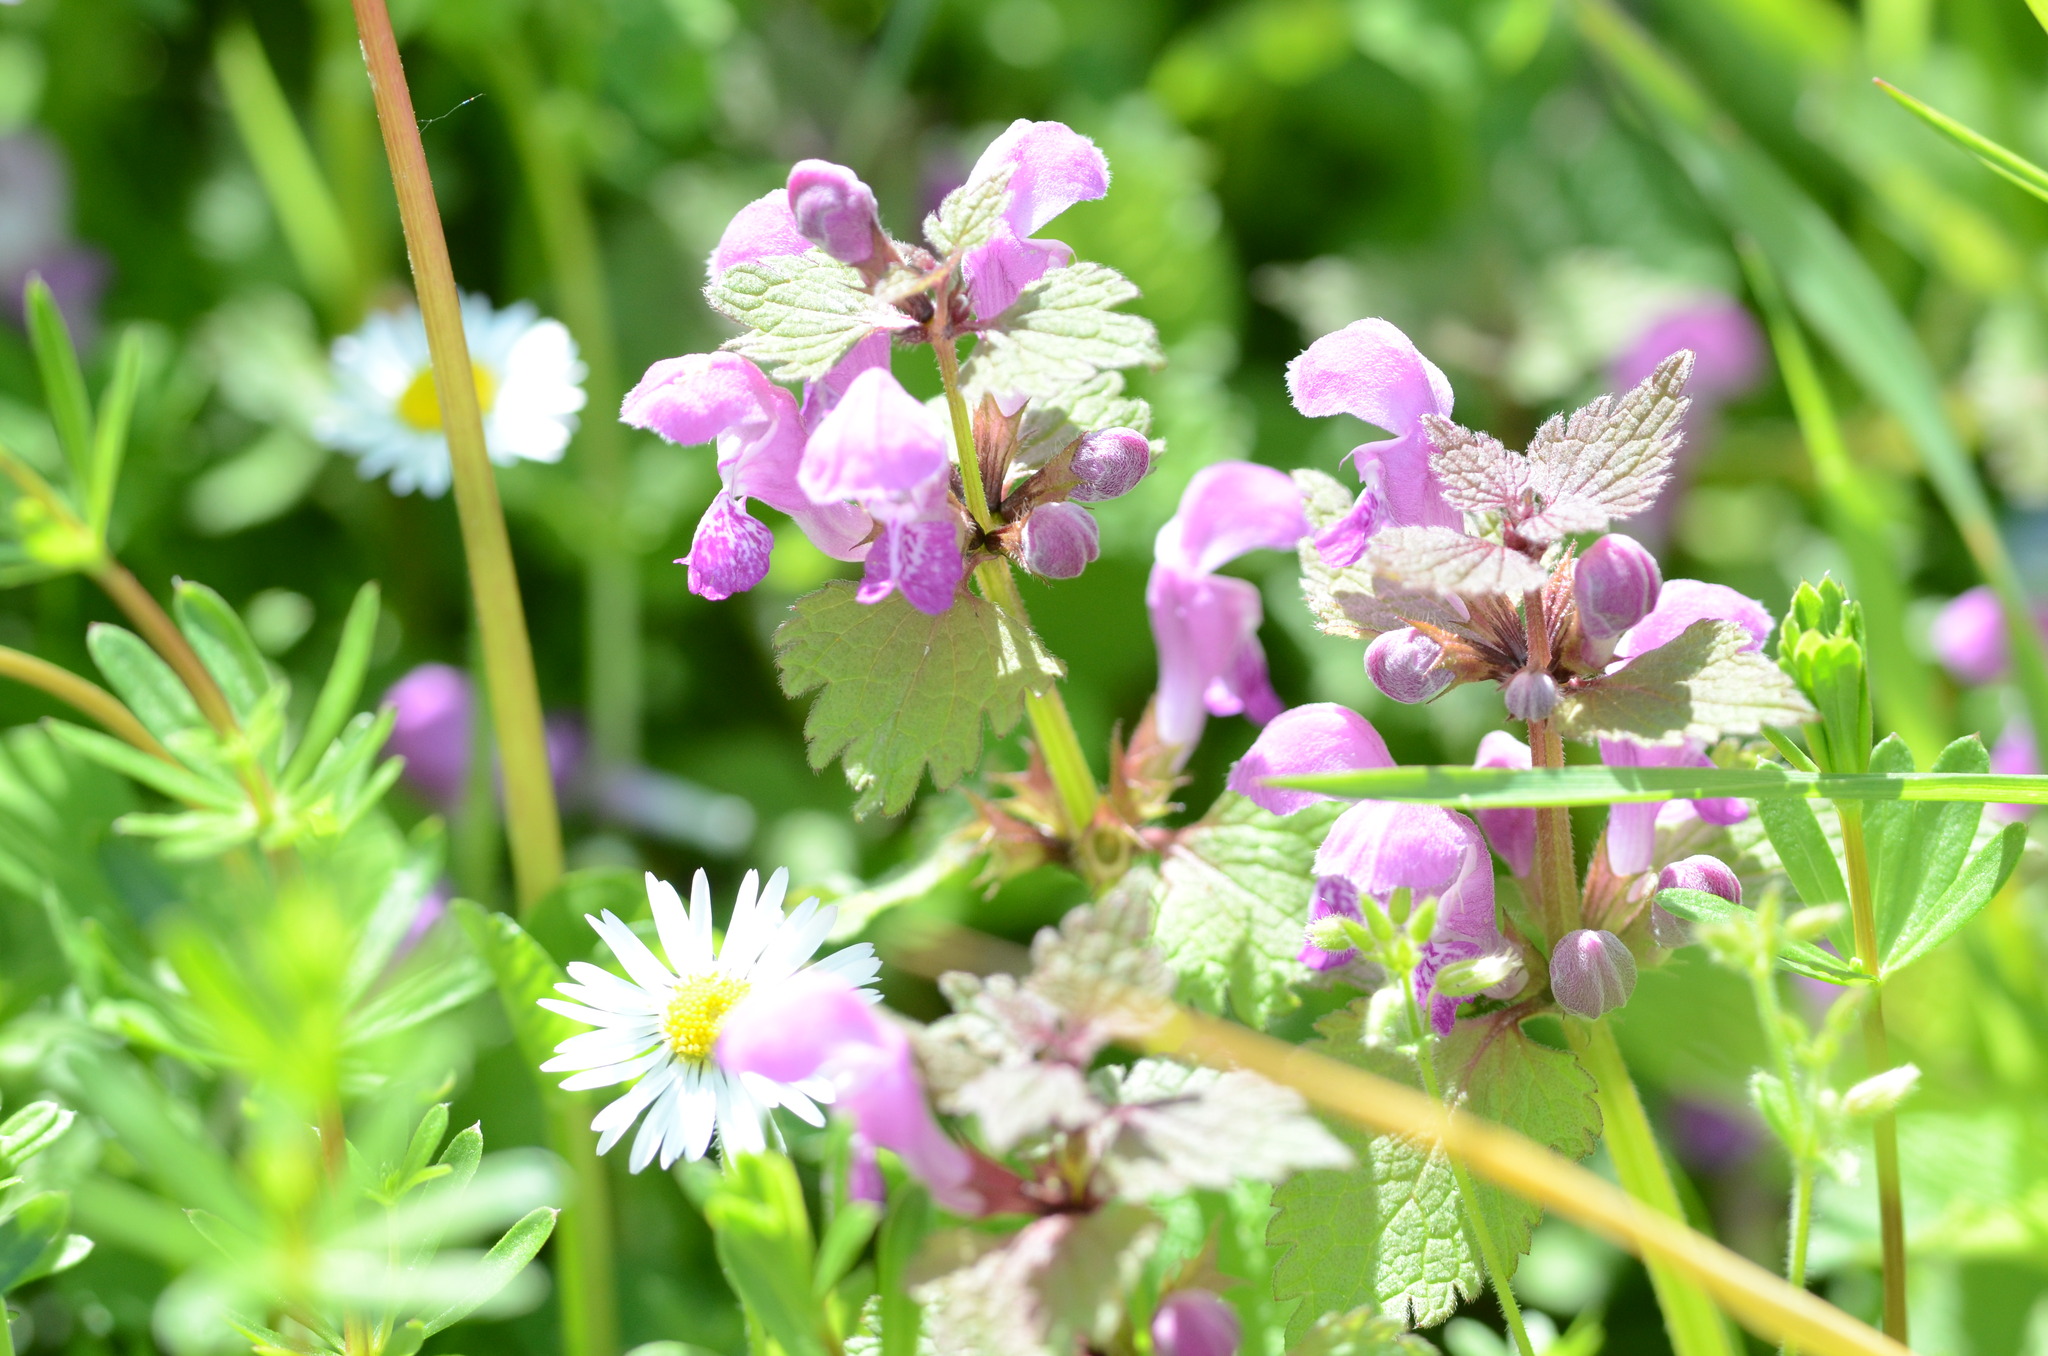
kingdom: Plantae
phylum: Tracheophyta
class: Magnoliopsida
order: Lamiales
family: Lamiaceae
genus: Lamium
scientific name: Lamium maculatum
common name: Spotted dead-nettle
